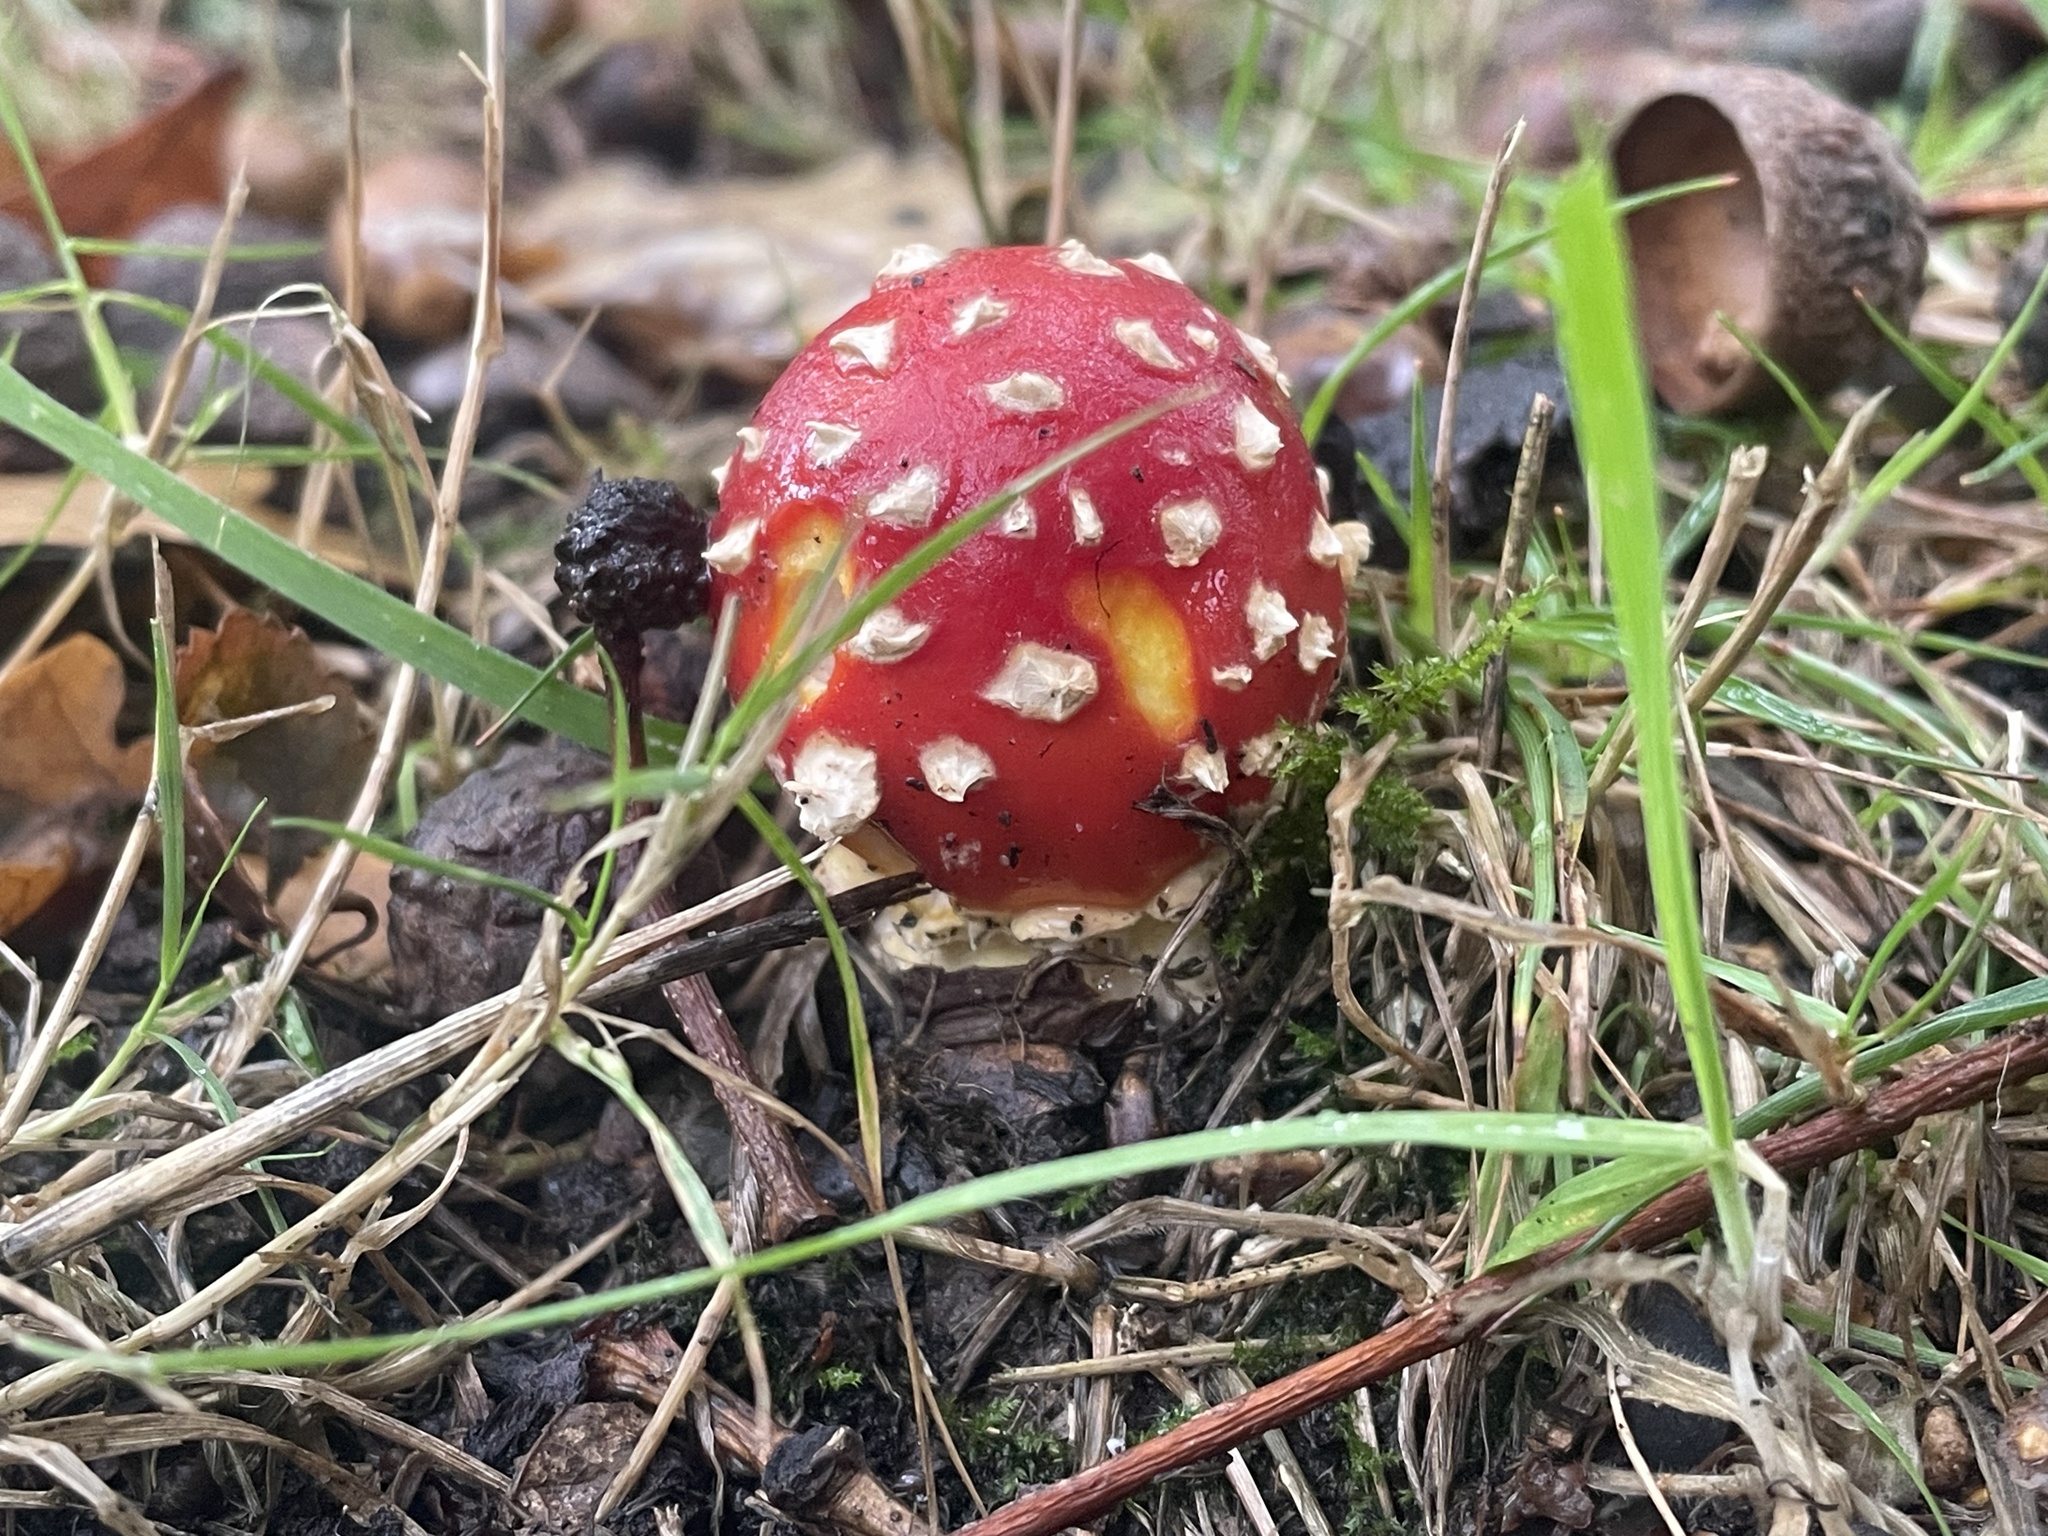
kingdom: Fungi
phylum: Basidiomycota
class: Agaricomycetes
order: Agaricales
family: Amanitaceae
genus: Amanita
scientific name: Amanita muscaria
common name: Fly agaric
